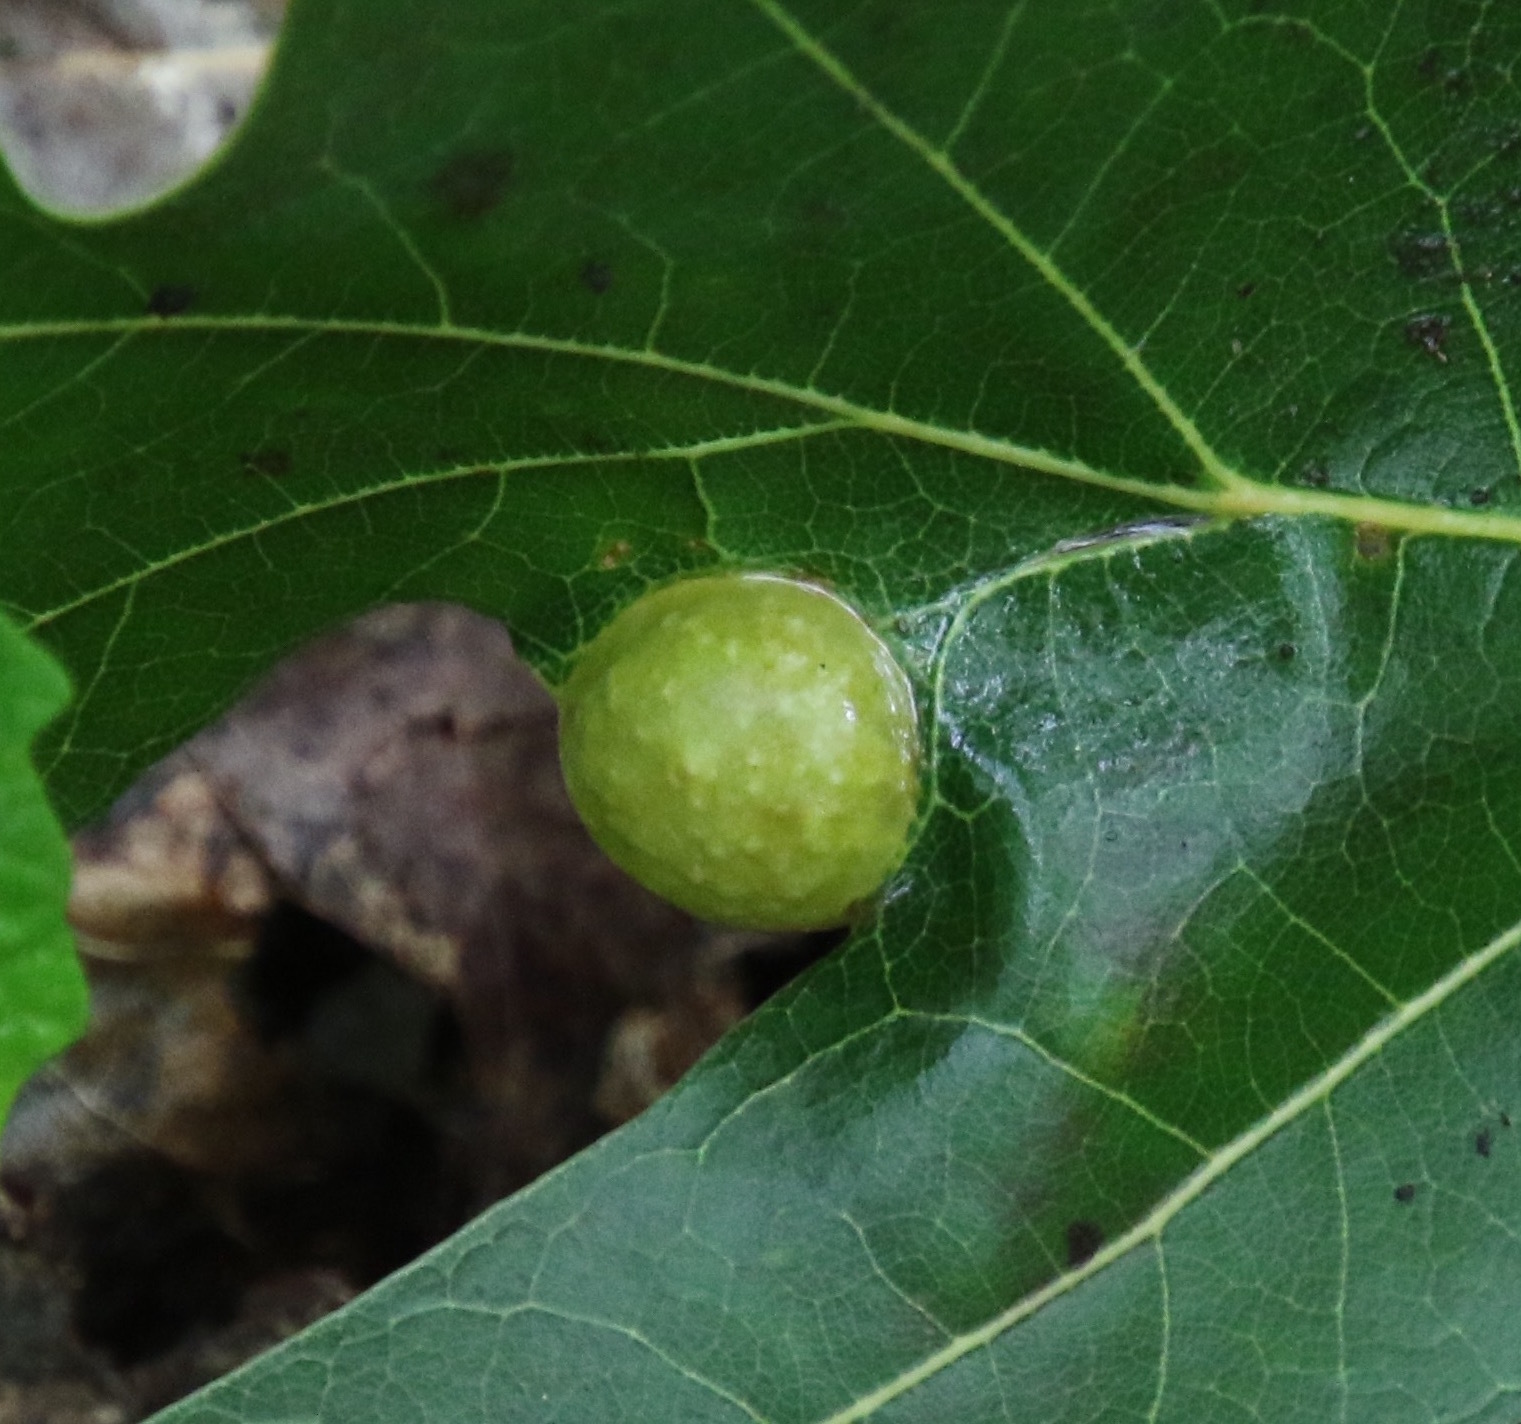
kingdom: Animalia
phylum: Arthropoda
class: Insecta
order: Hymenoptera
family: Cynipidae
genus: Amphibolips
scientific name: Amphibolips
